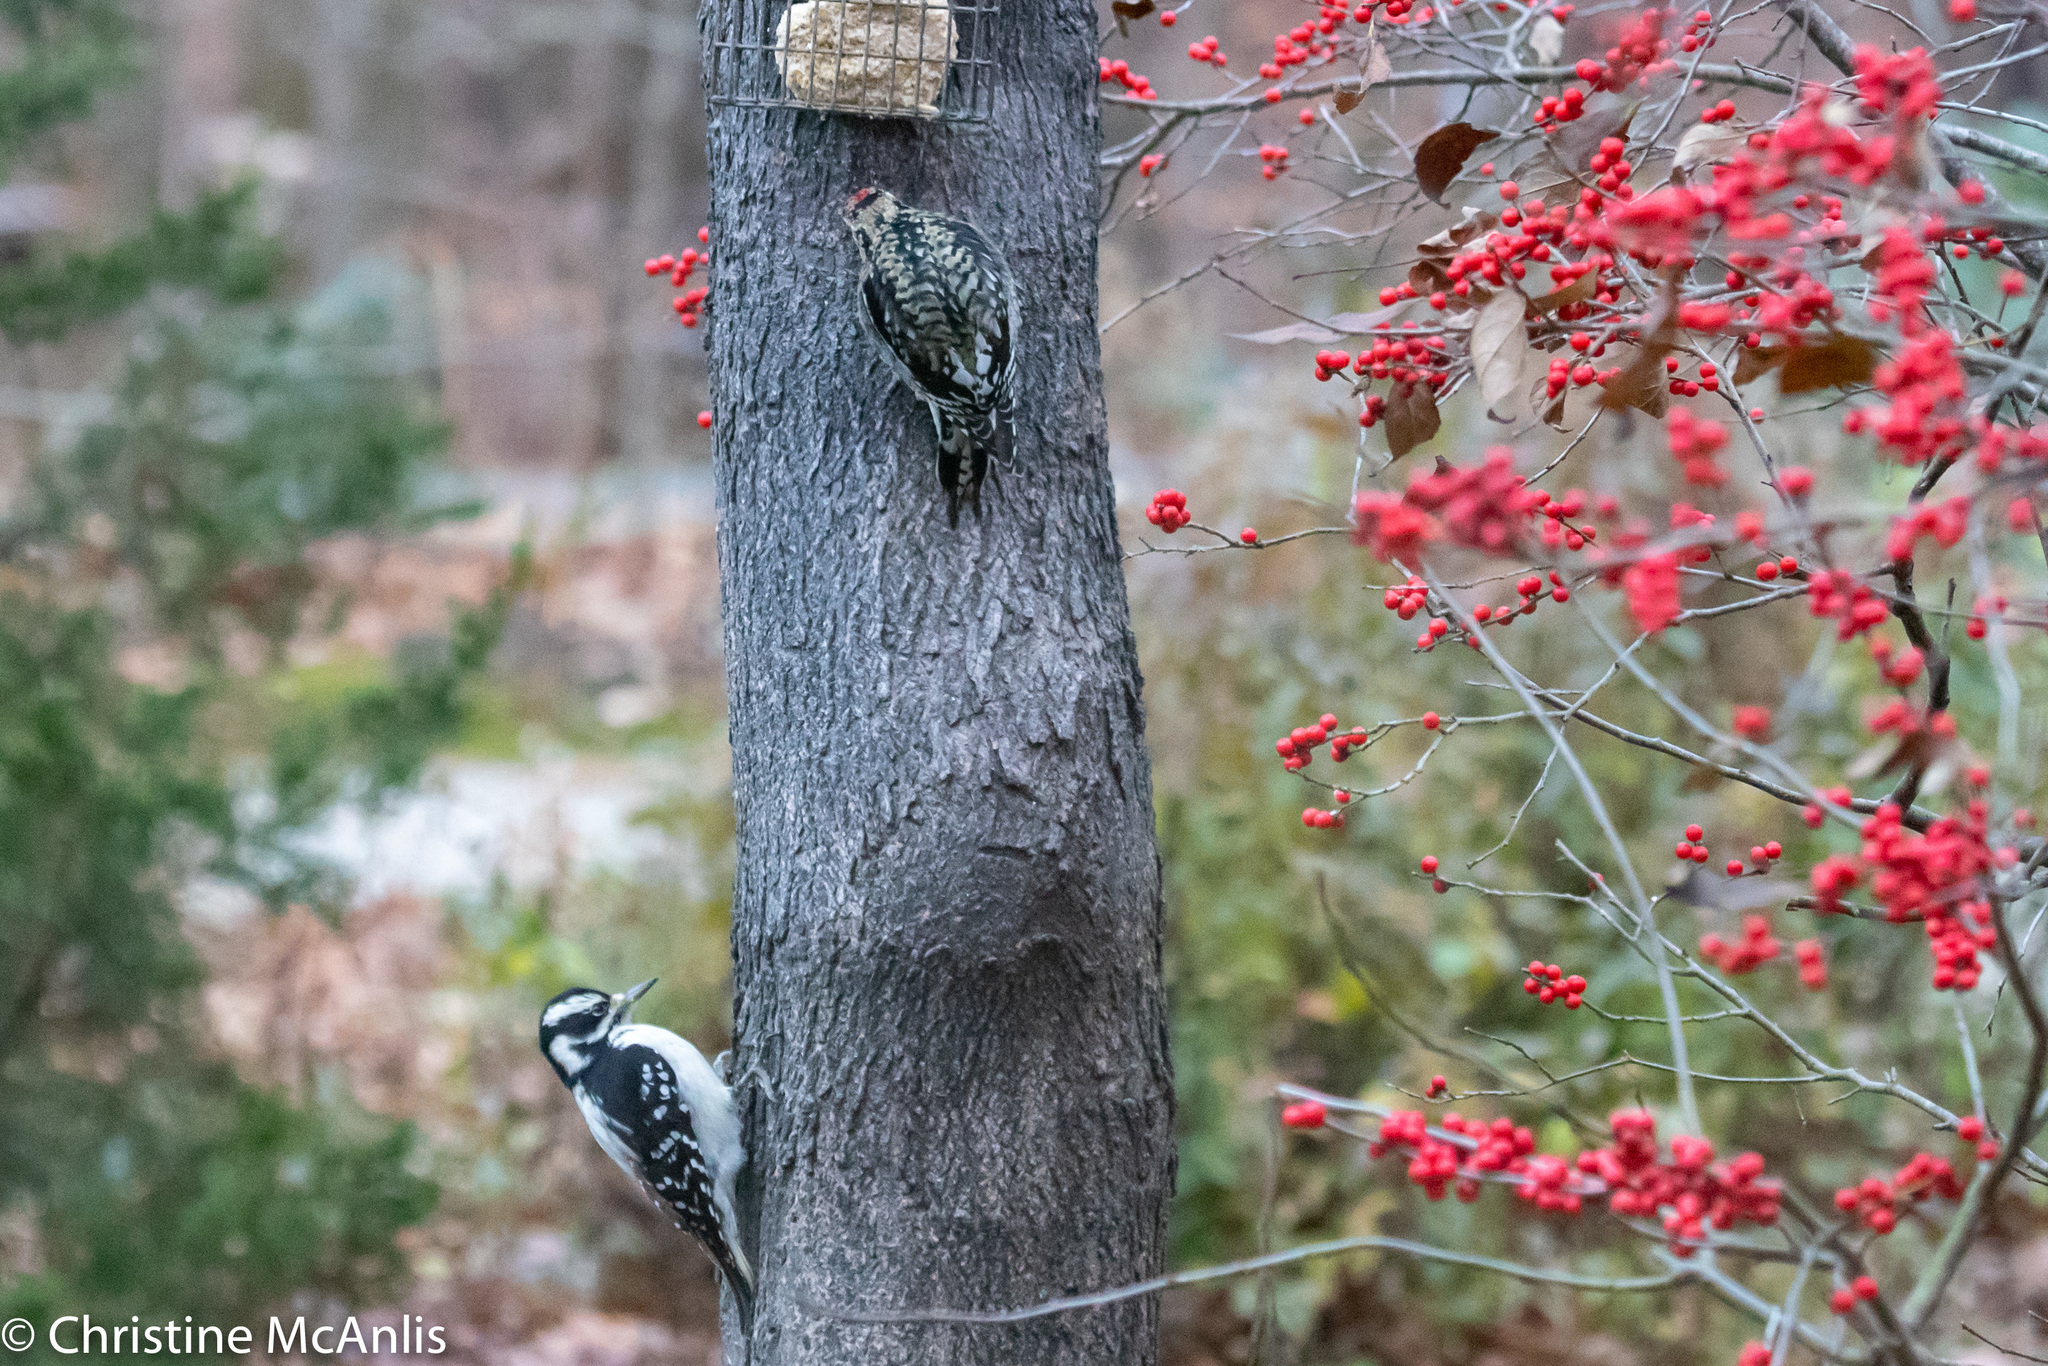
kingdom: Animalia
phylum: Chordata
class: Aves
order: Piciformes
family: Picidae
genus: Sphyrapicus
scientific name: Sphyrapicus varius
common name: Yellow-bellied sapsucker
